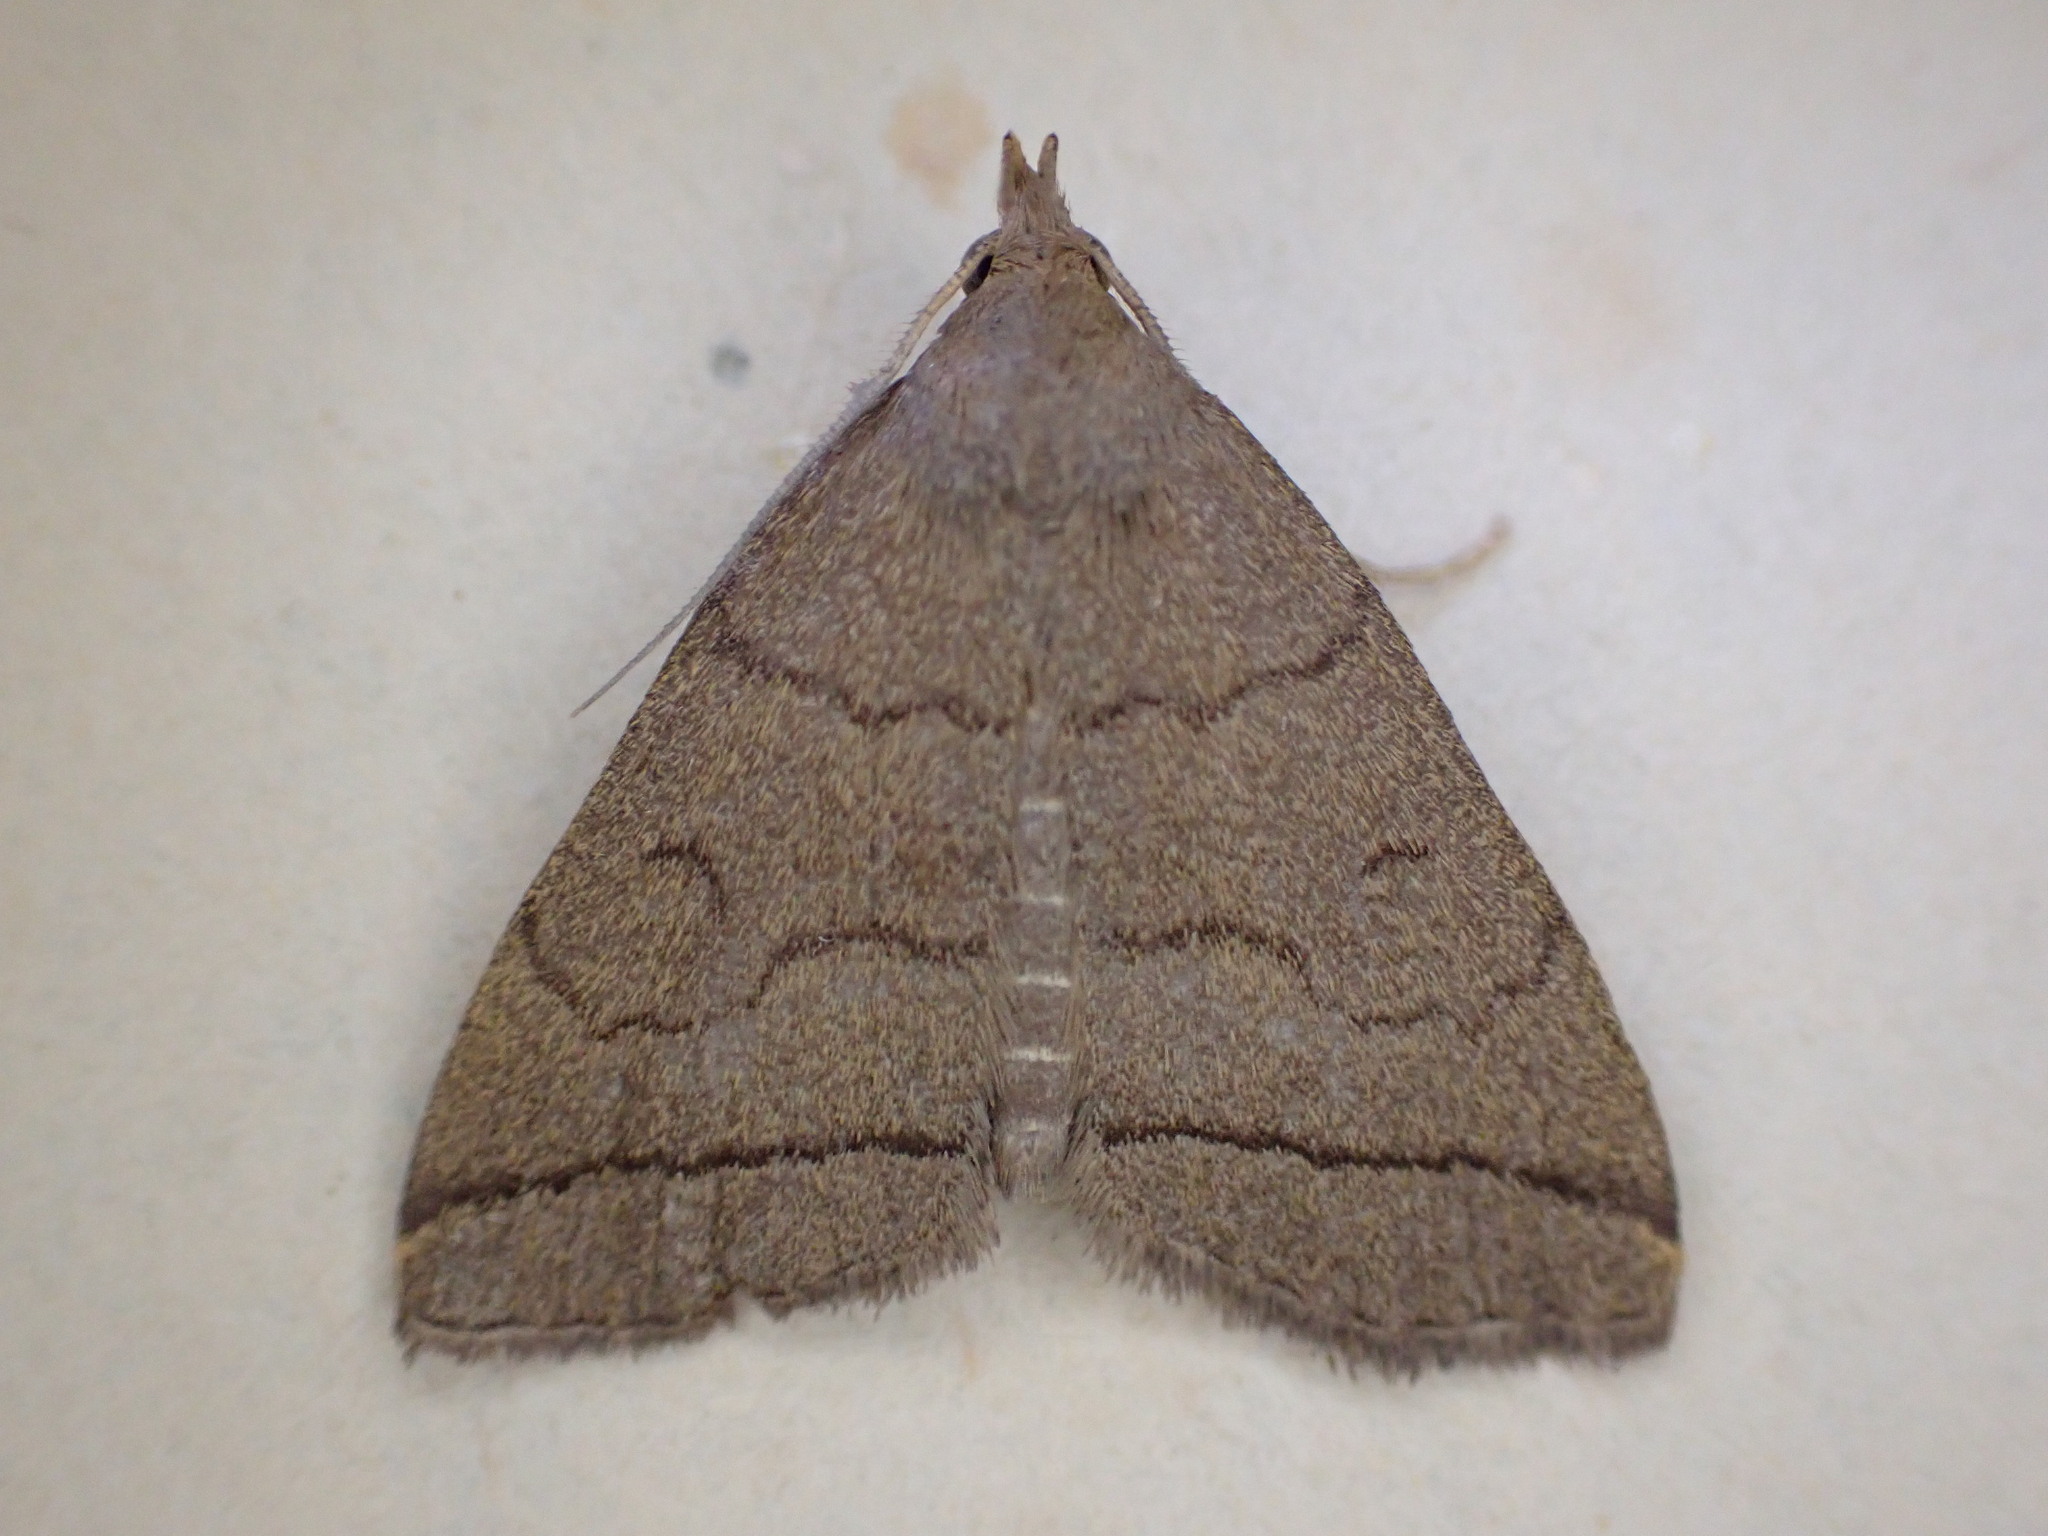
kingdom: Animalia
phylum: Arthropoda
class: Insecta
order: Lepidoptera
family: Erebidae
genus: Herminia
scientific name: Herminia tarsipennalis
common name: Fan-foot
